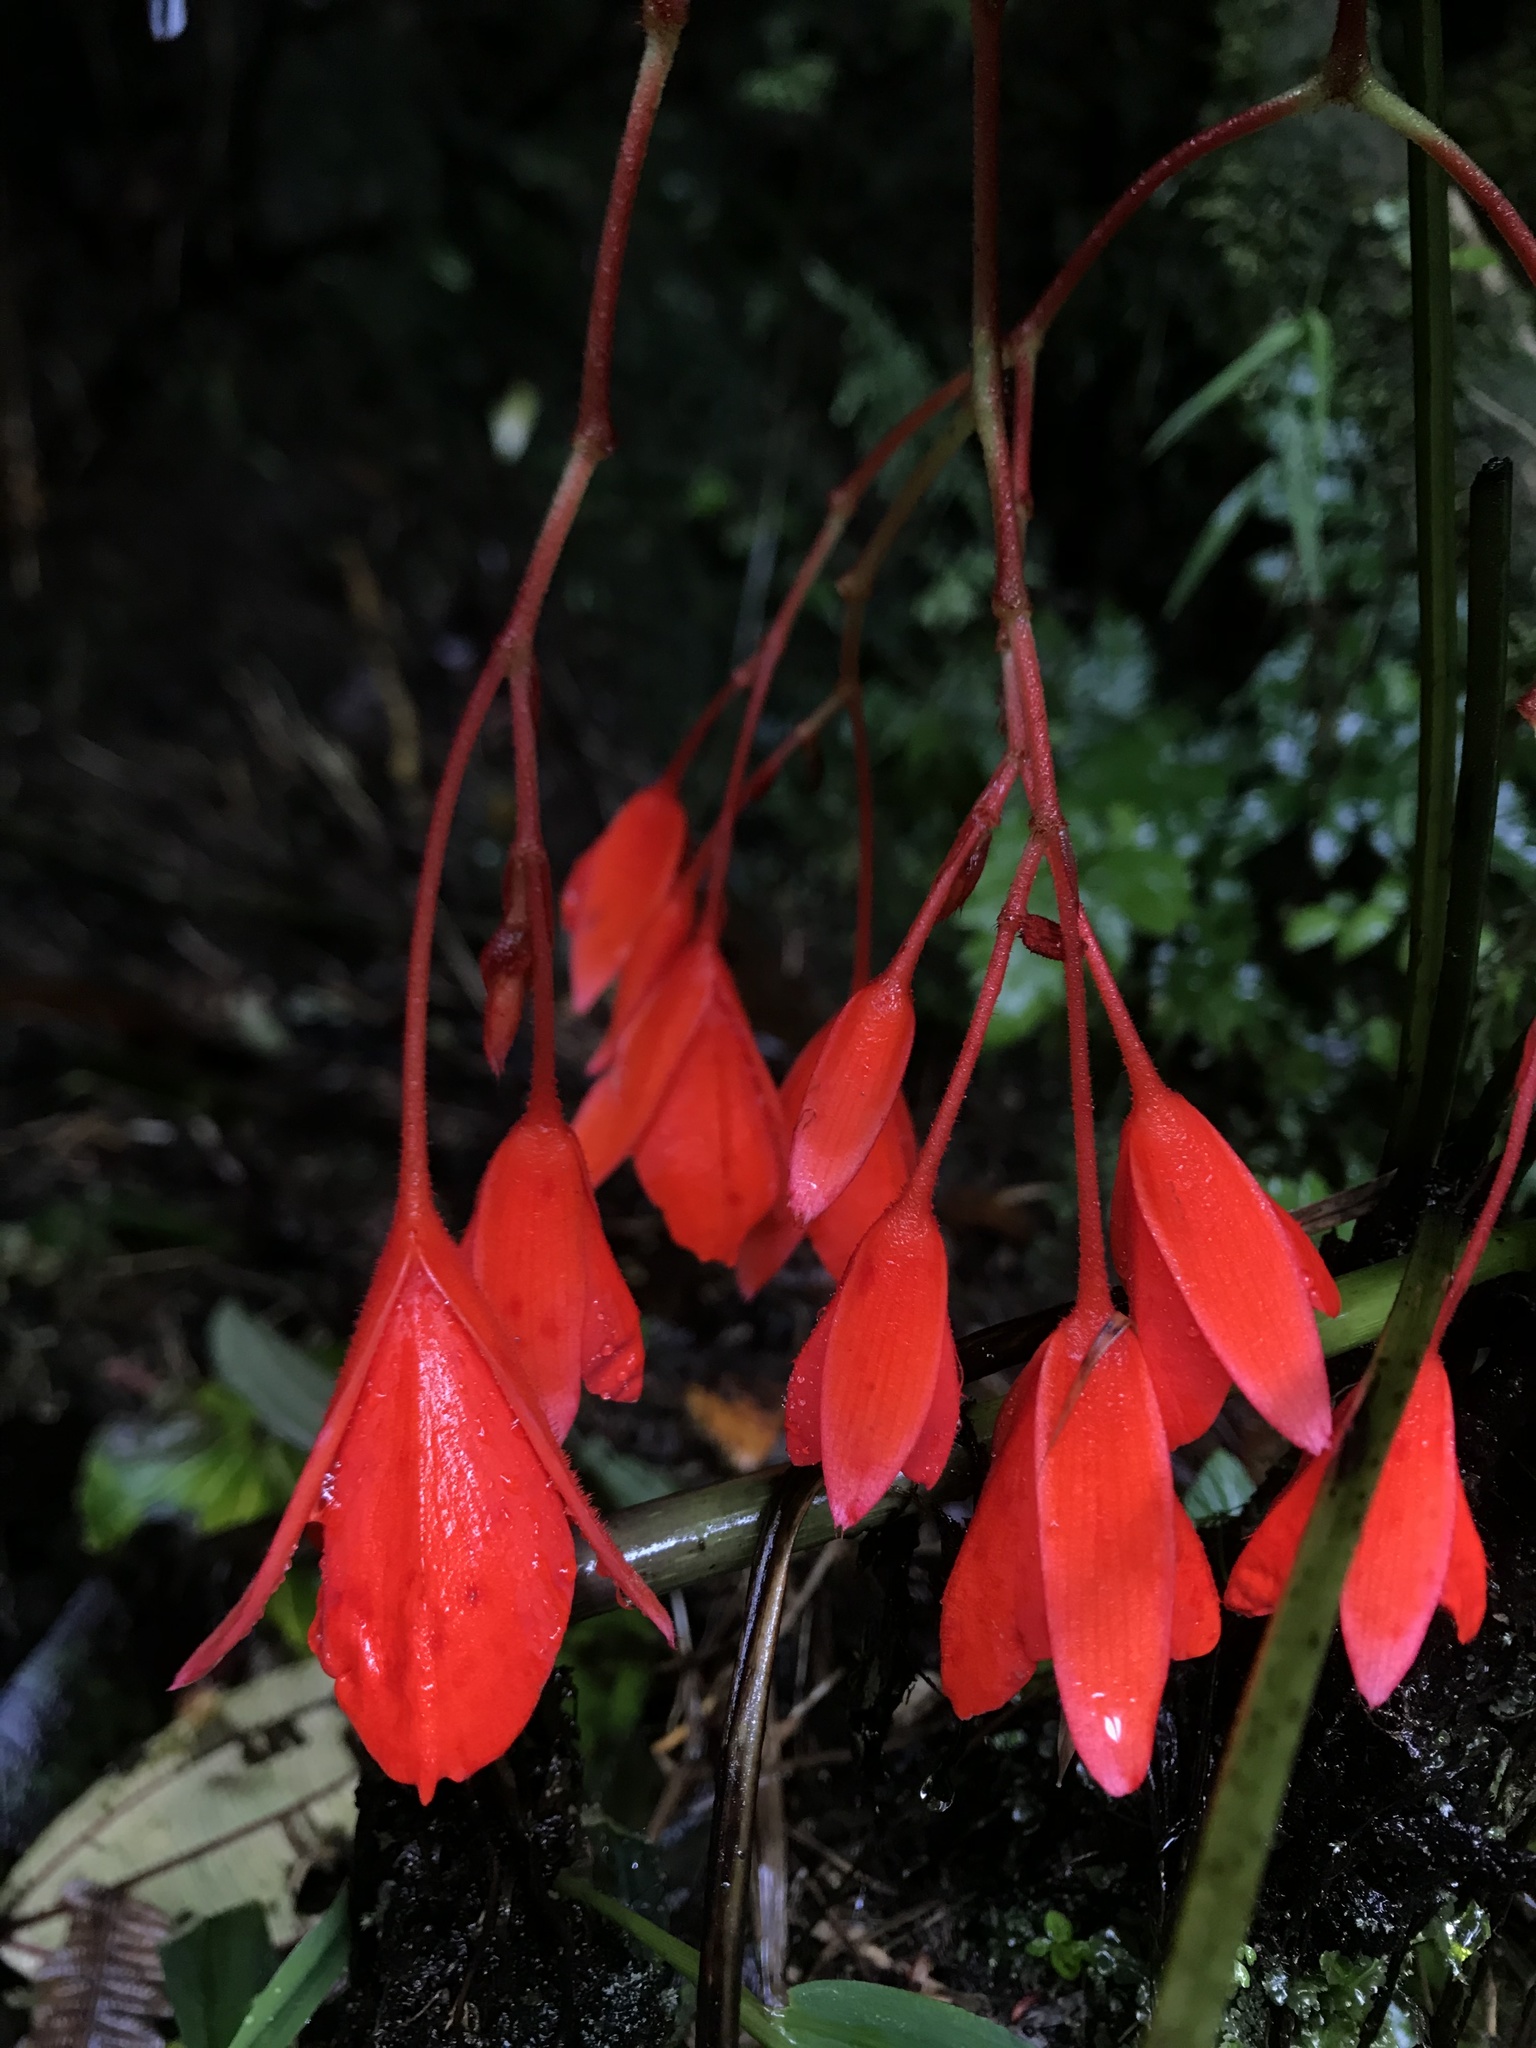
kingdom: Plantae
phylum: Tracheophyta
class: Magnoliopsida
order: Cucurbitales
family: Begoniaceae
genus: Begonia
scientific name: Begonia ferruginea
